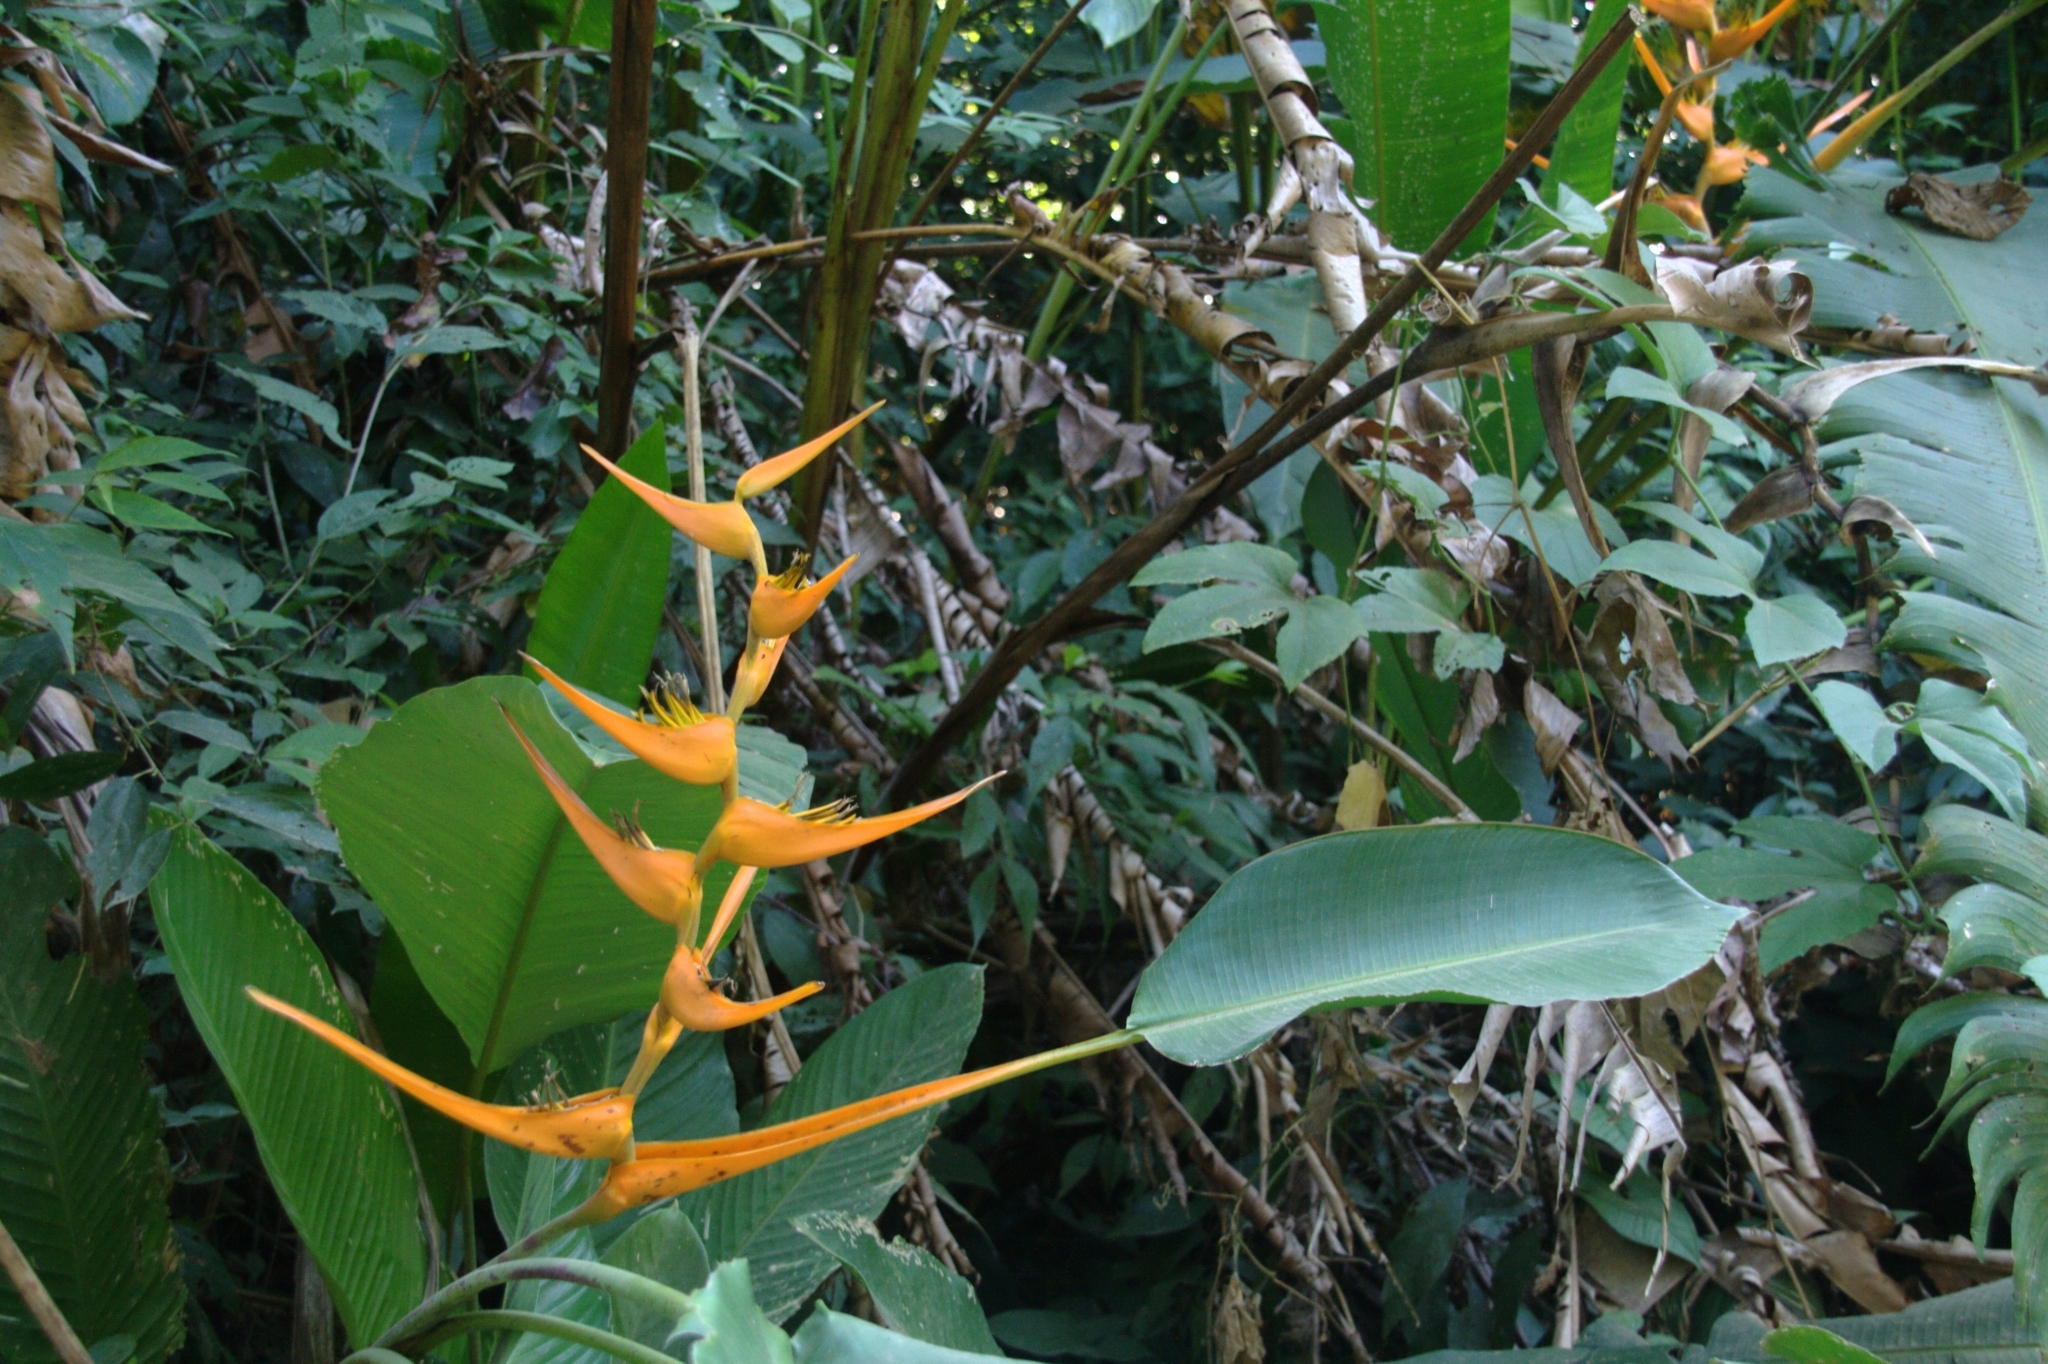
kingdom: Plantae
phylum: Tracheophyta
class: Liliopsida
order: Zingiberales
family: Heliconiaceae
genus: Heliconia
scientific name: Heliconia latispatha
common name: Expanded lobsterclaw
